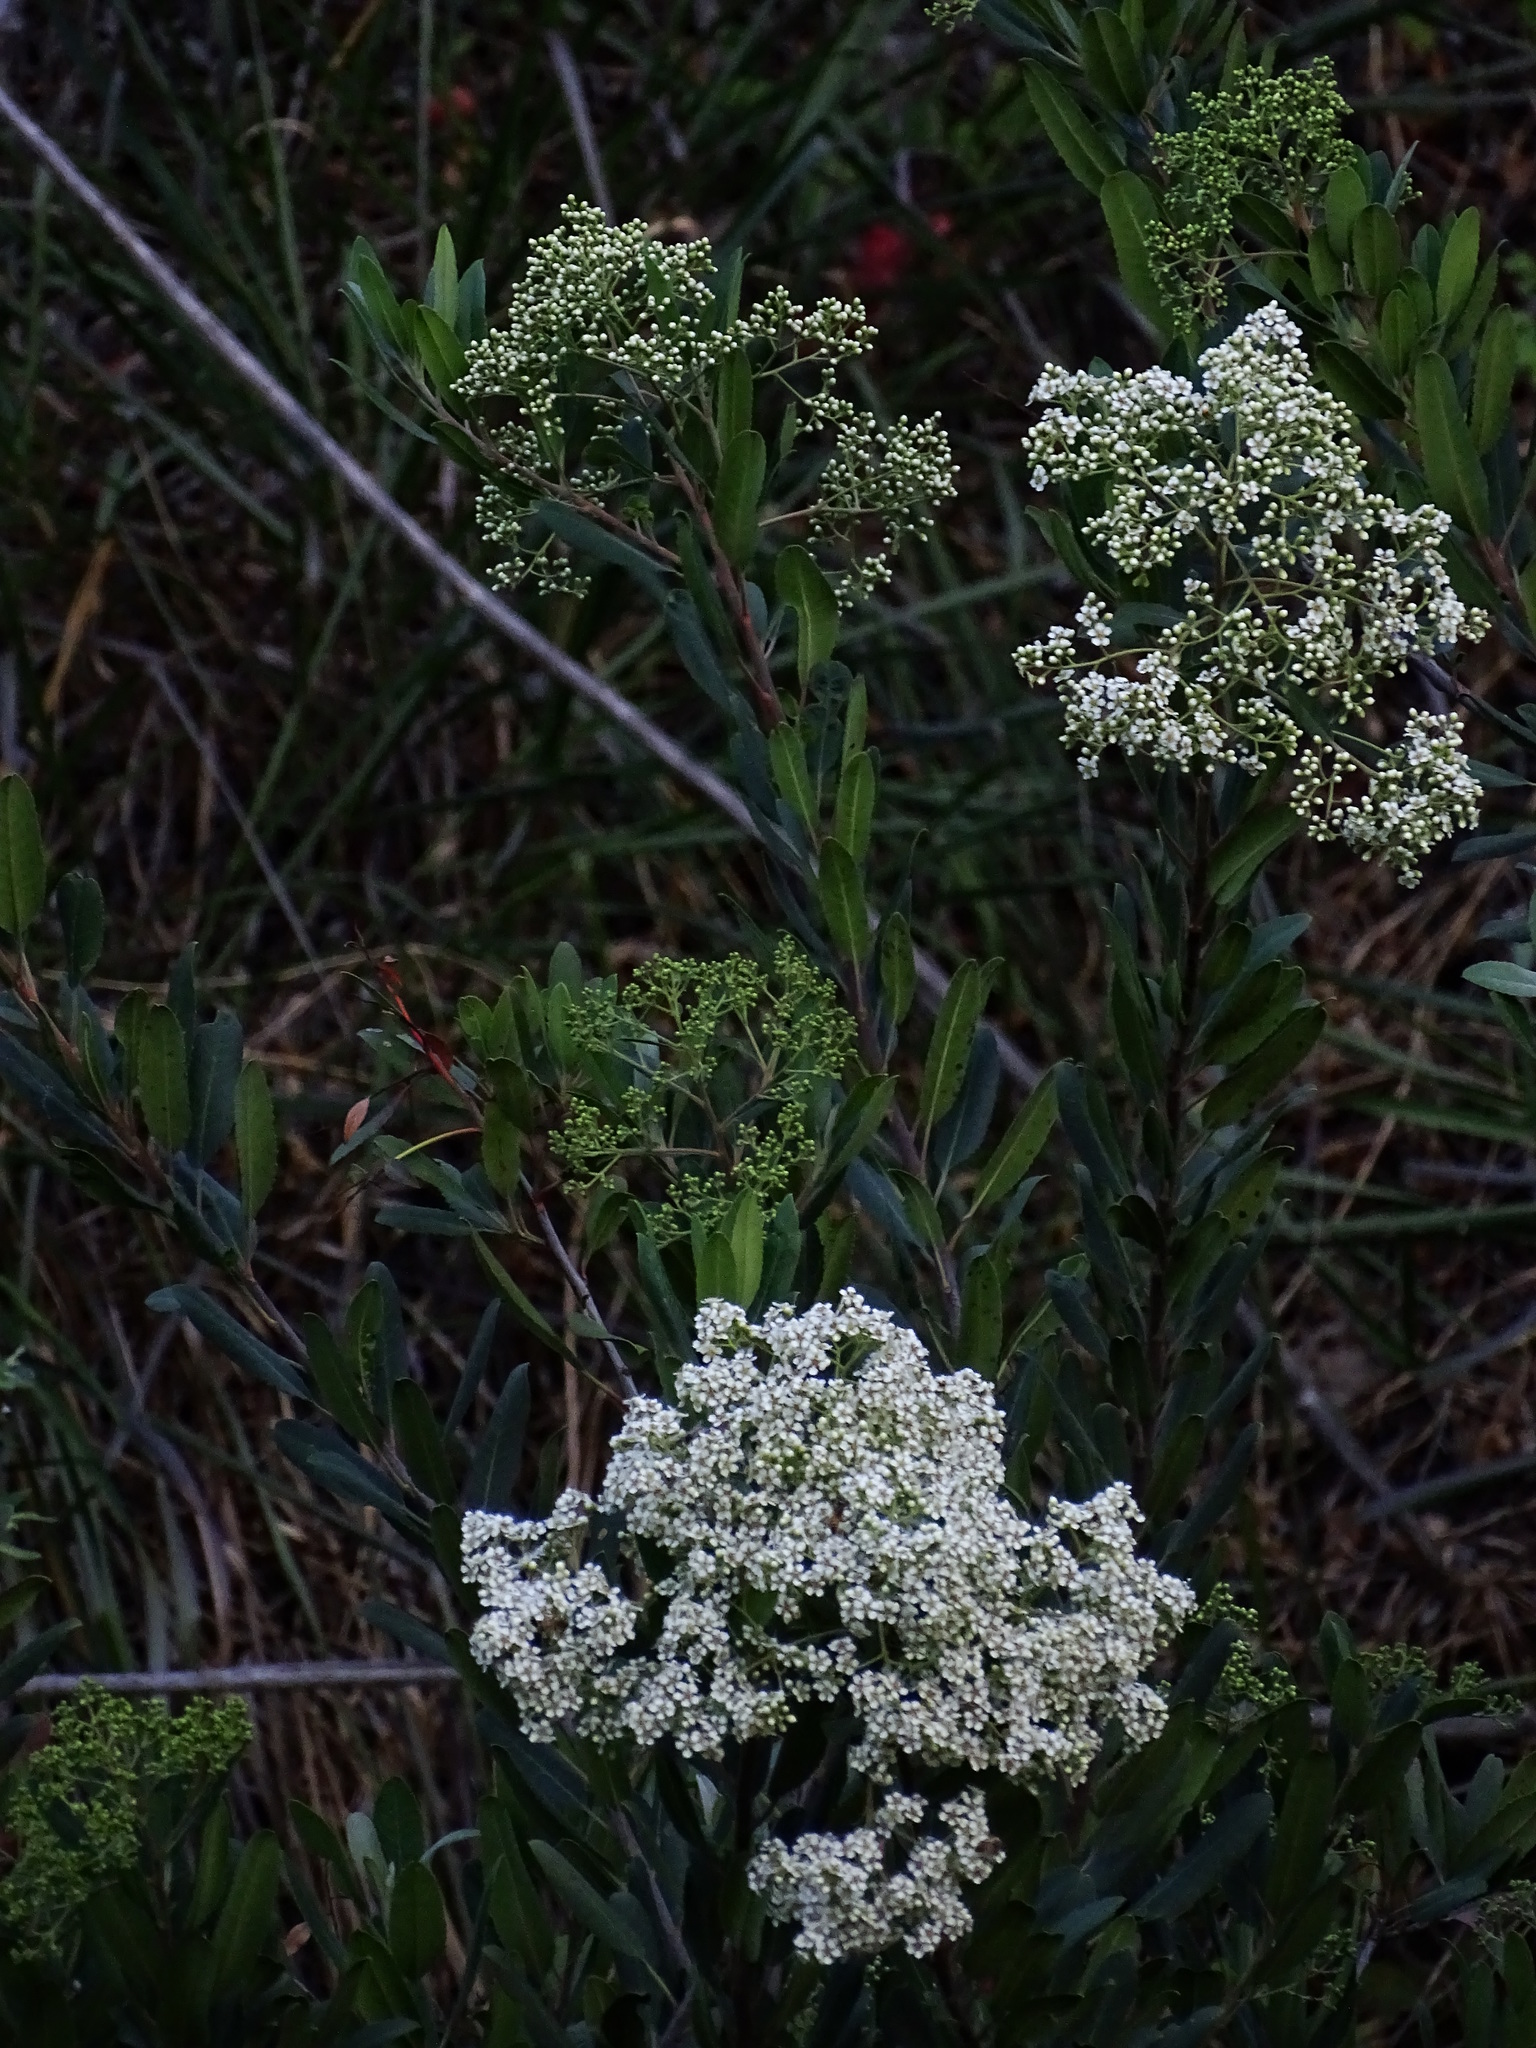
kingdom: Plantae
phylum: Tracheophyta
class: Magnoliopsida
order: Rosales
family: Rosaceae
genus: Heteromeles
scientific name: Heteromeles arbutifolia
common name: California-holly
